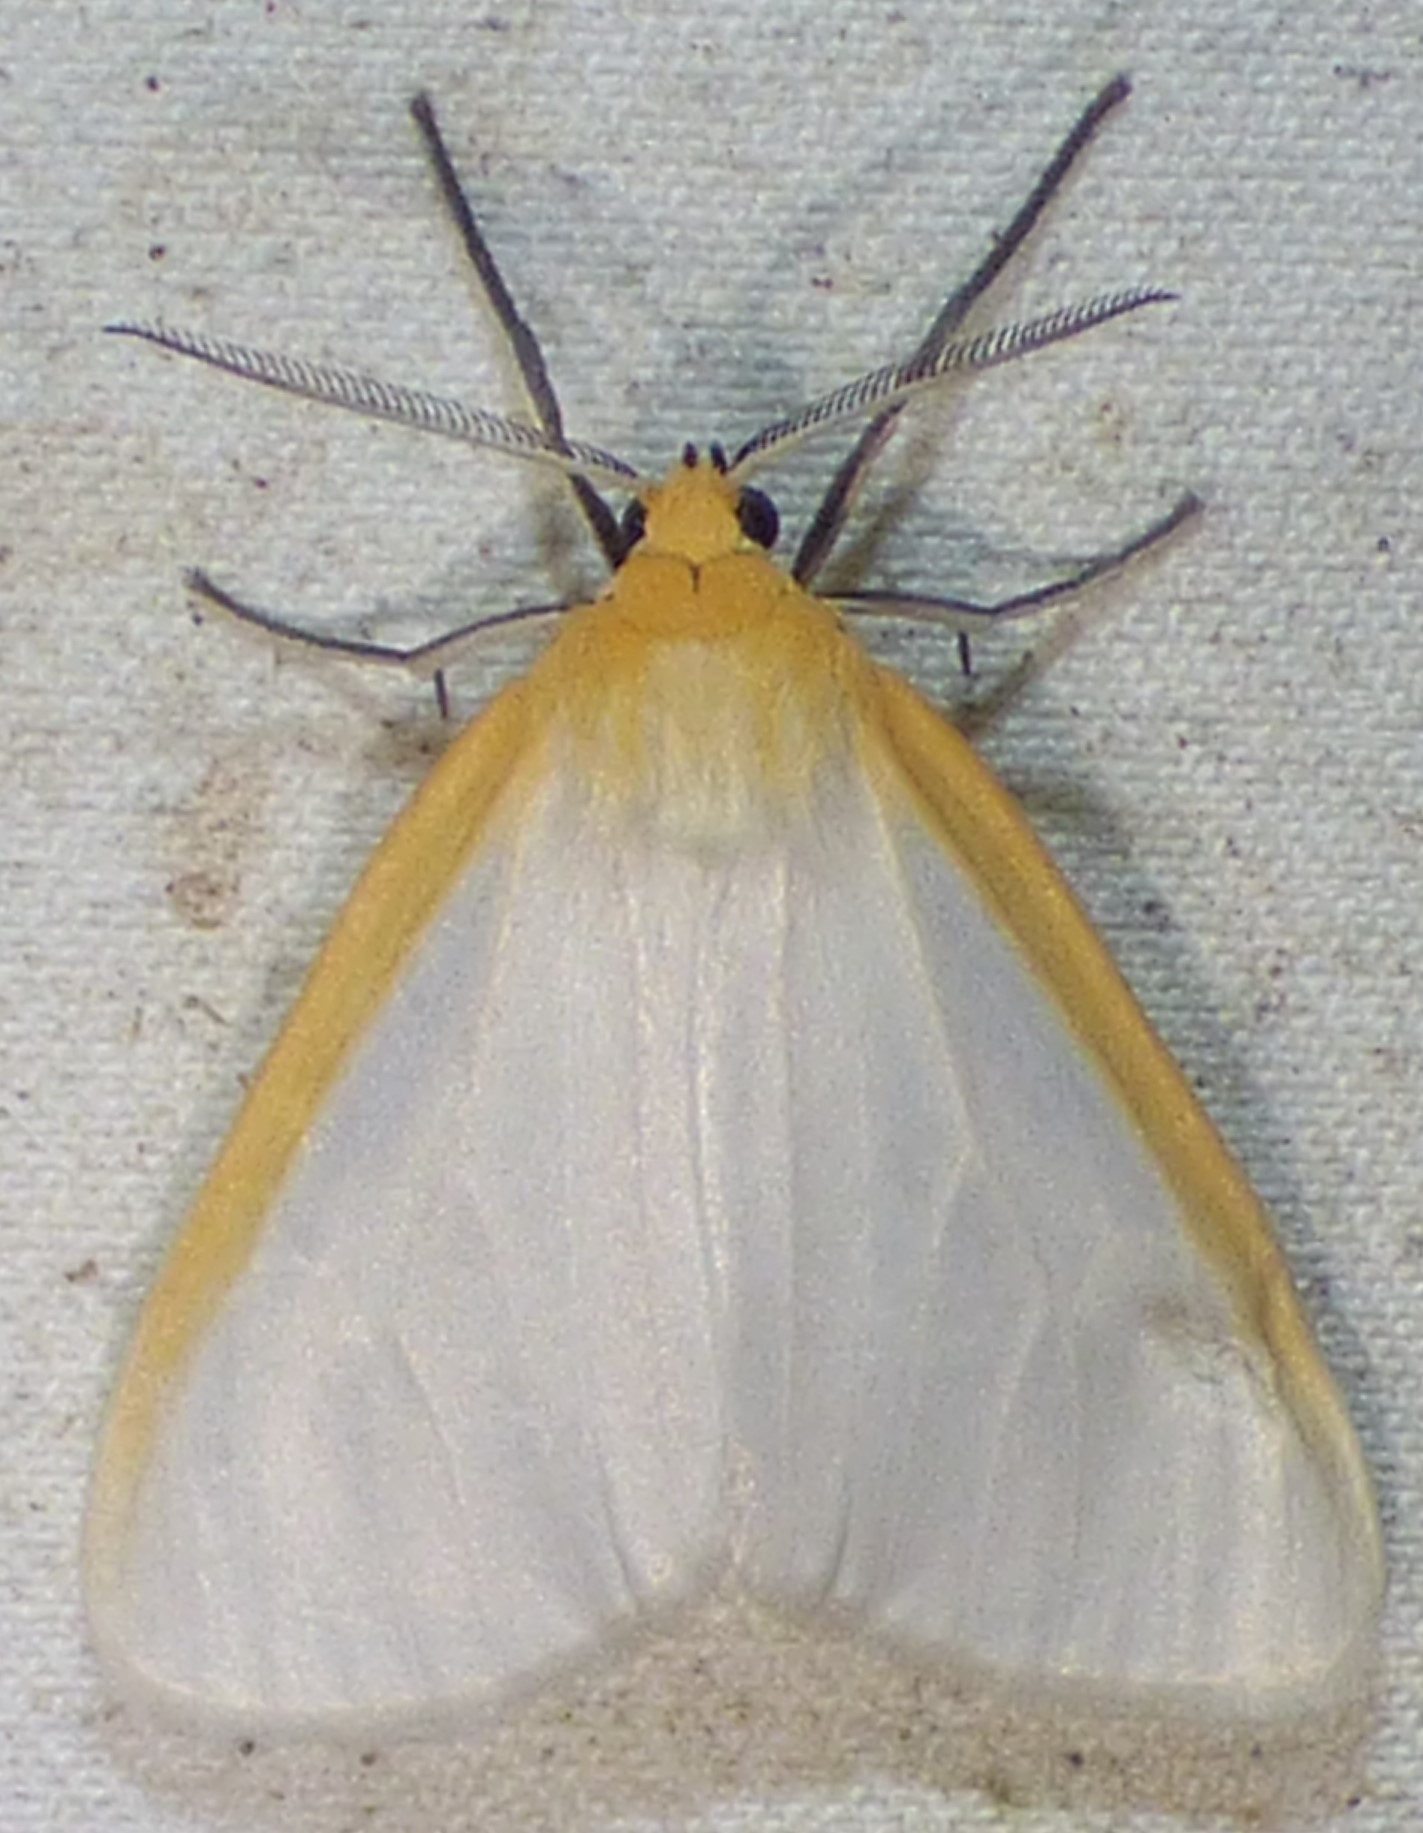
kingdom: Animalia
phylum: Arthropoda
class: Insecta
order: Lepidoptera
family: Erebidae
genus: Cycnia
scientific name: Cycnia tenera
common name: Delicate cycnia moth
